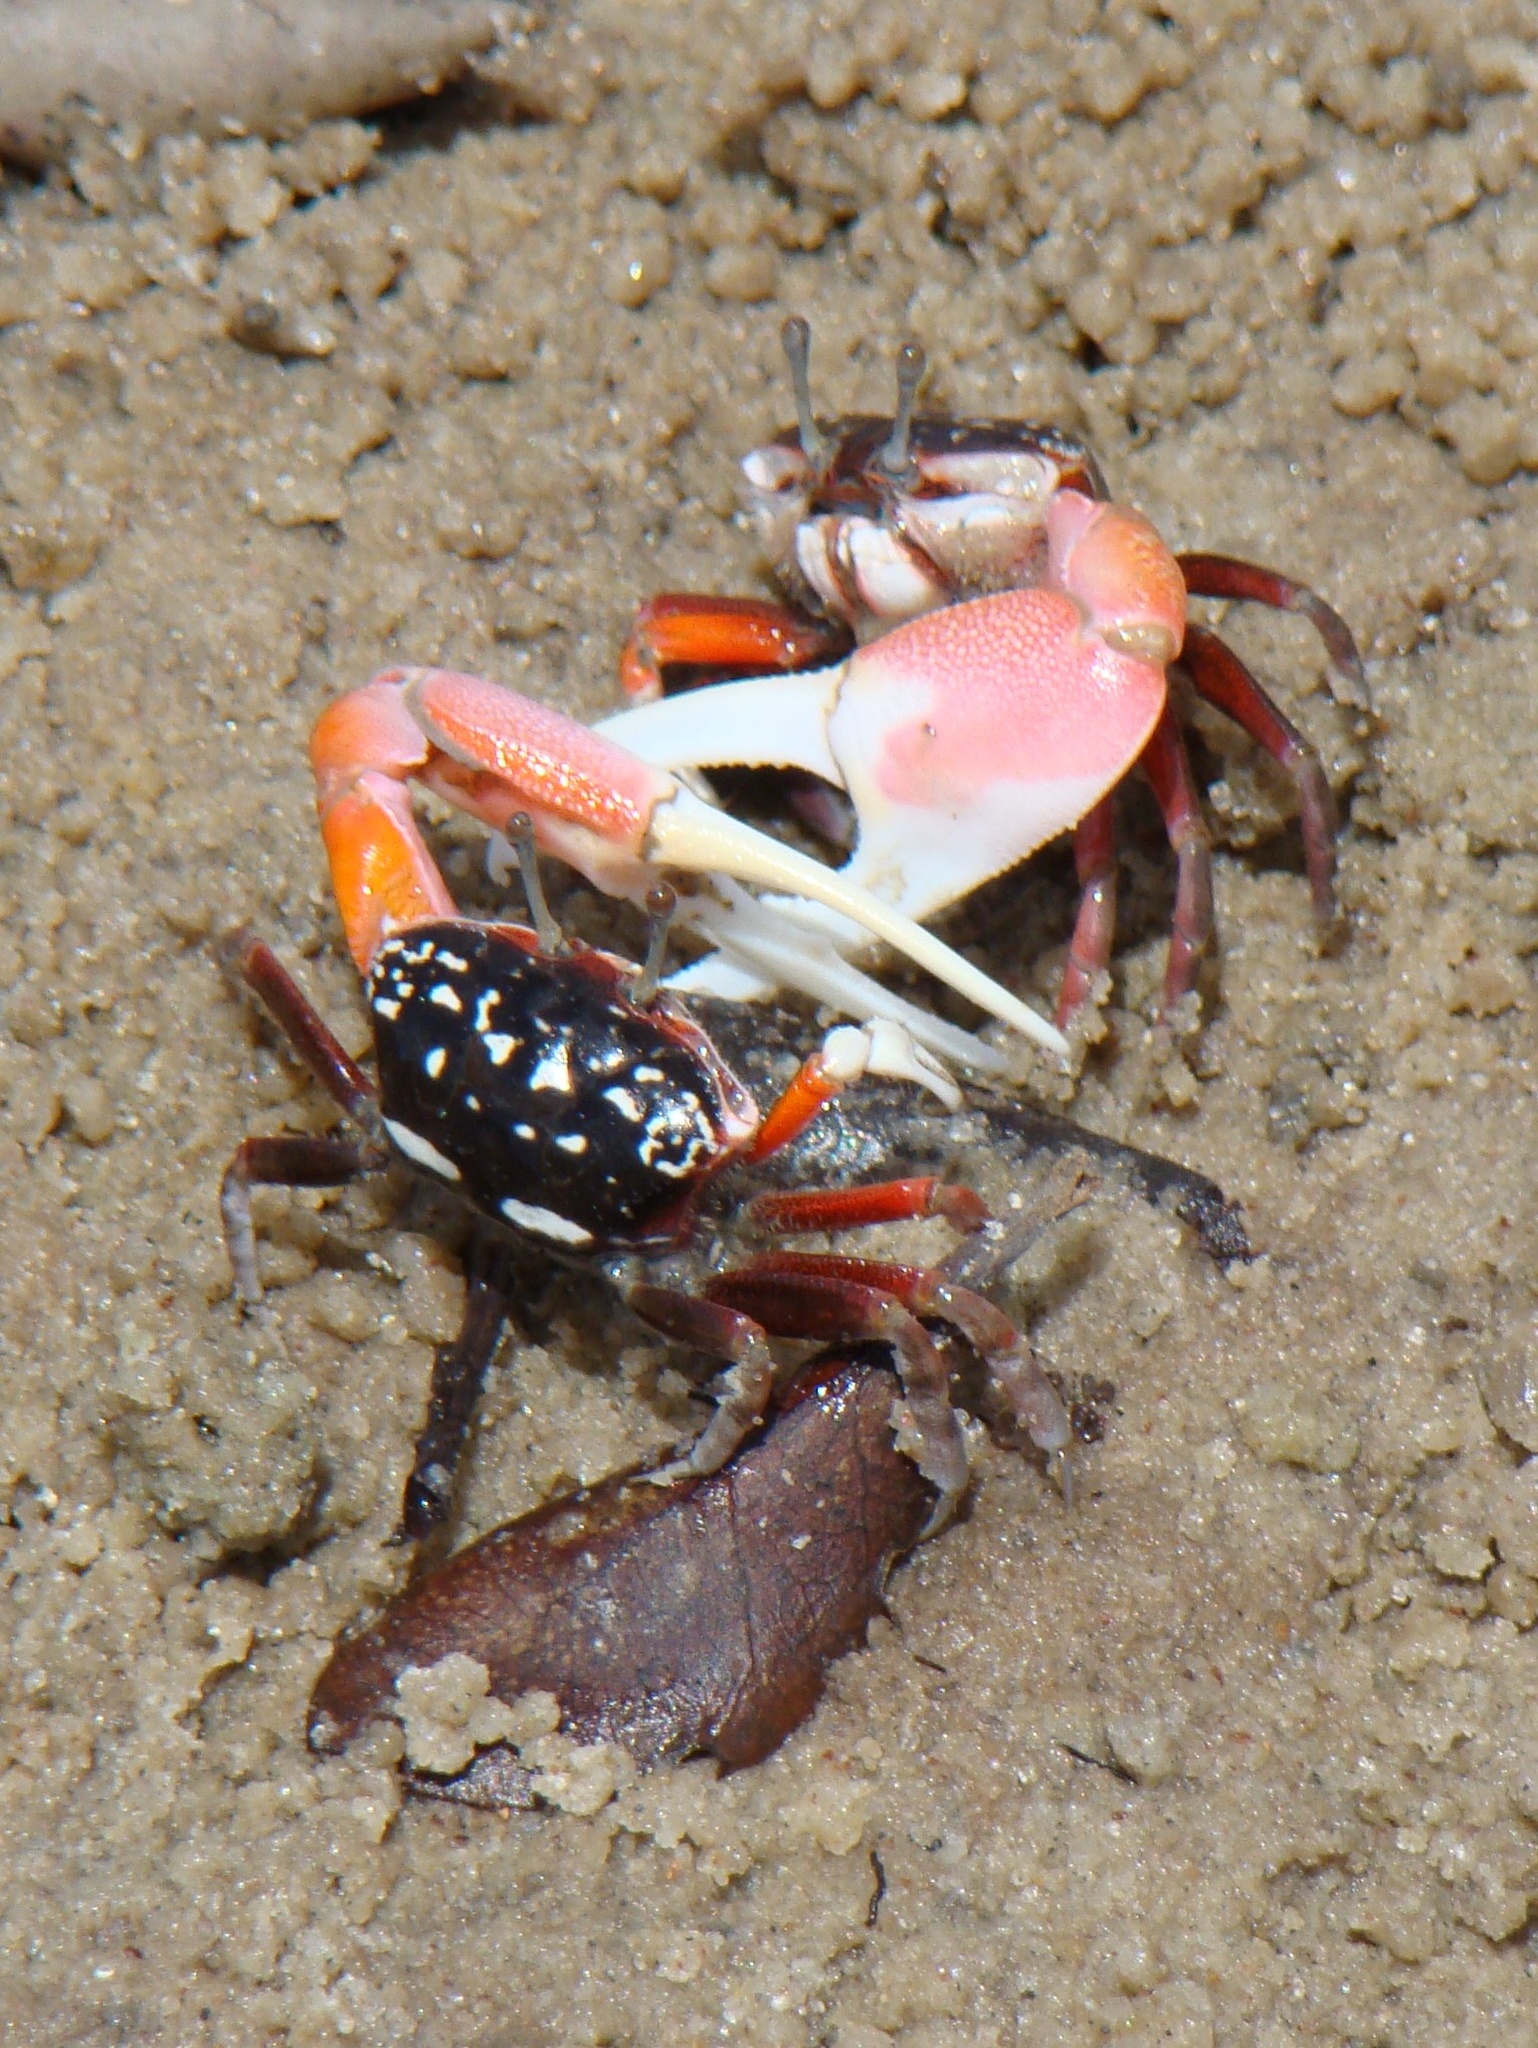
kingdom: Animalia
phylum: Arthropoda
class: Malacostraca
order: Decapoda
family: Ocypodidae
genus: Austruca
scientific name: Austruca occidentalis
